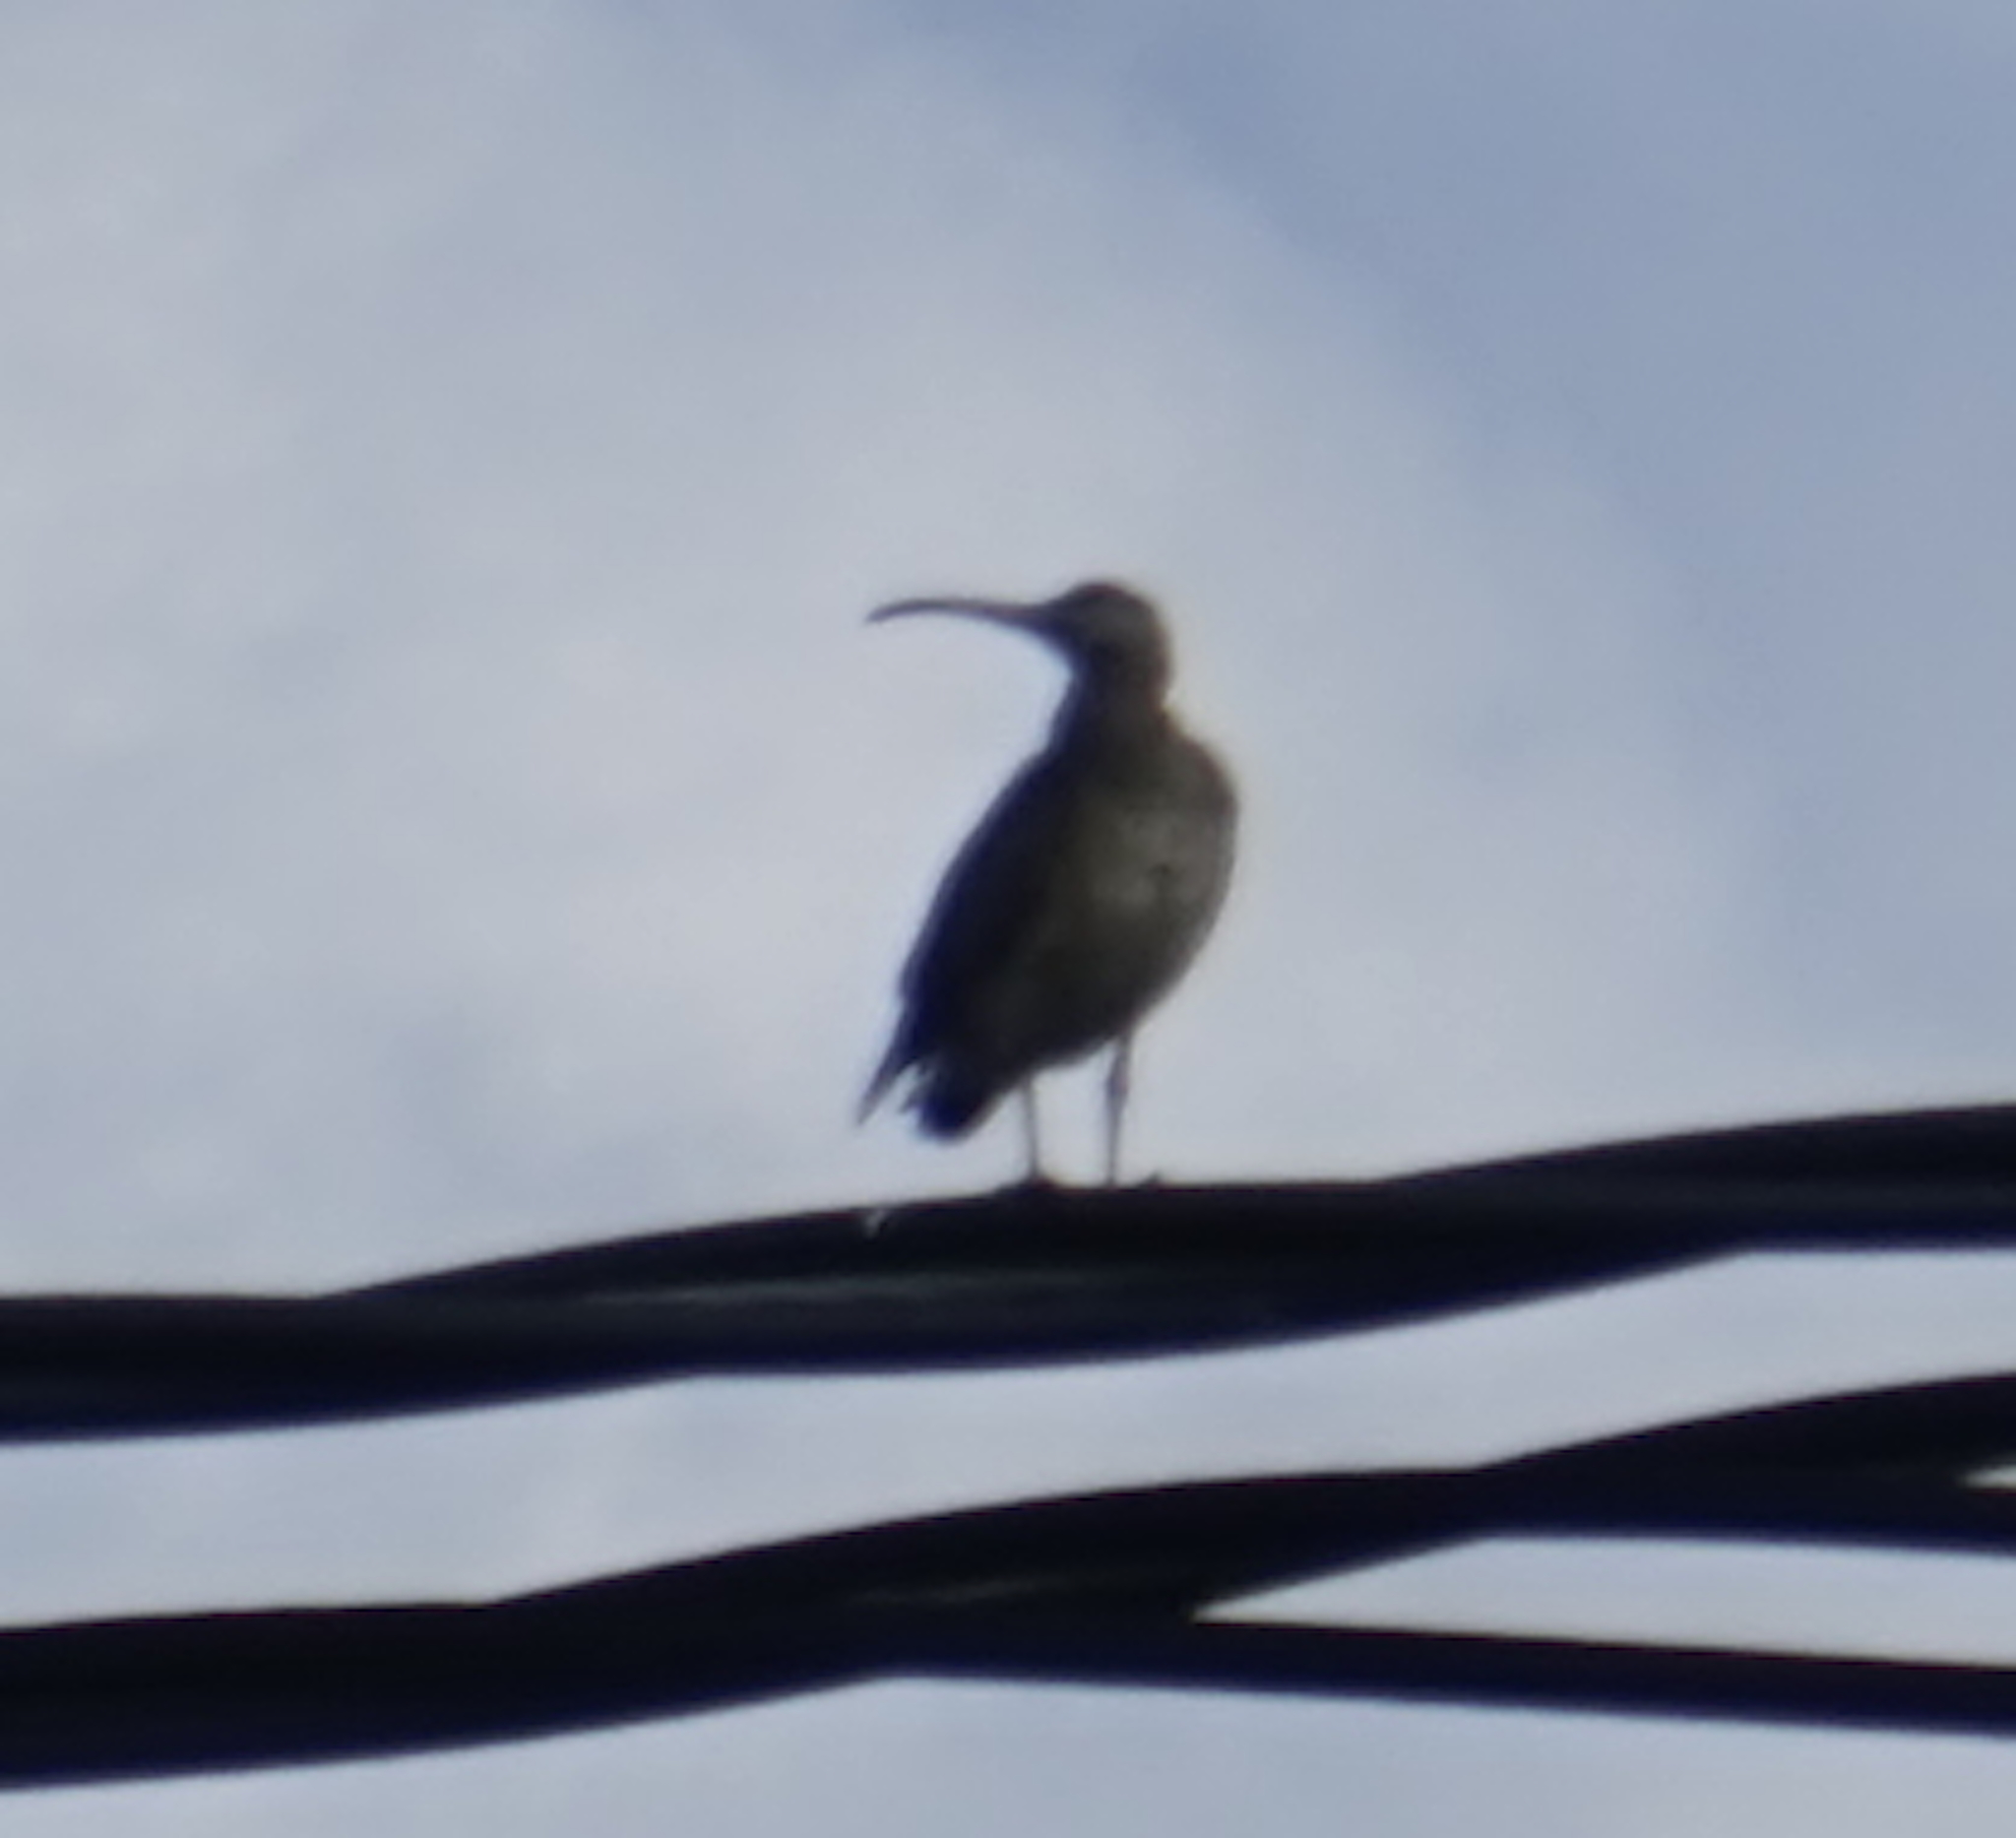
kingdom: Animalia
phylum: Chordata
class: Aves
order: Charadriiformes
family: Scolopacidae
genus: Numenius
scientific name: Numenius phaeopus
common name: Whimbrel
